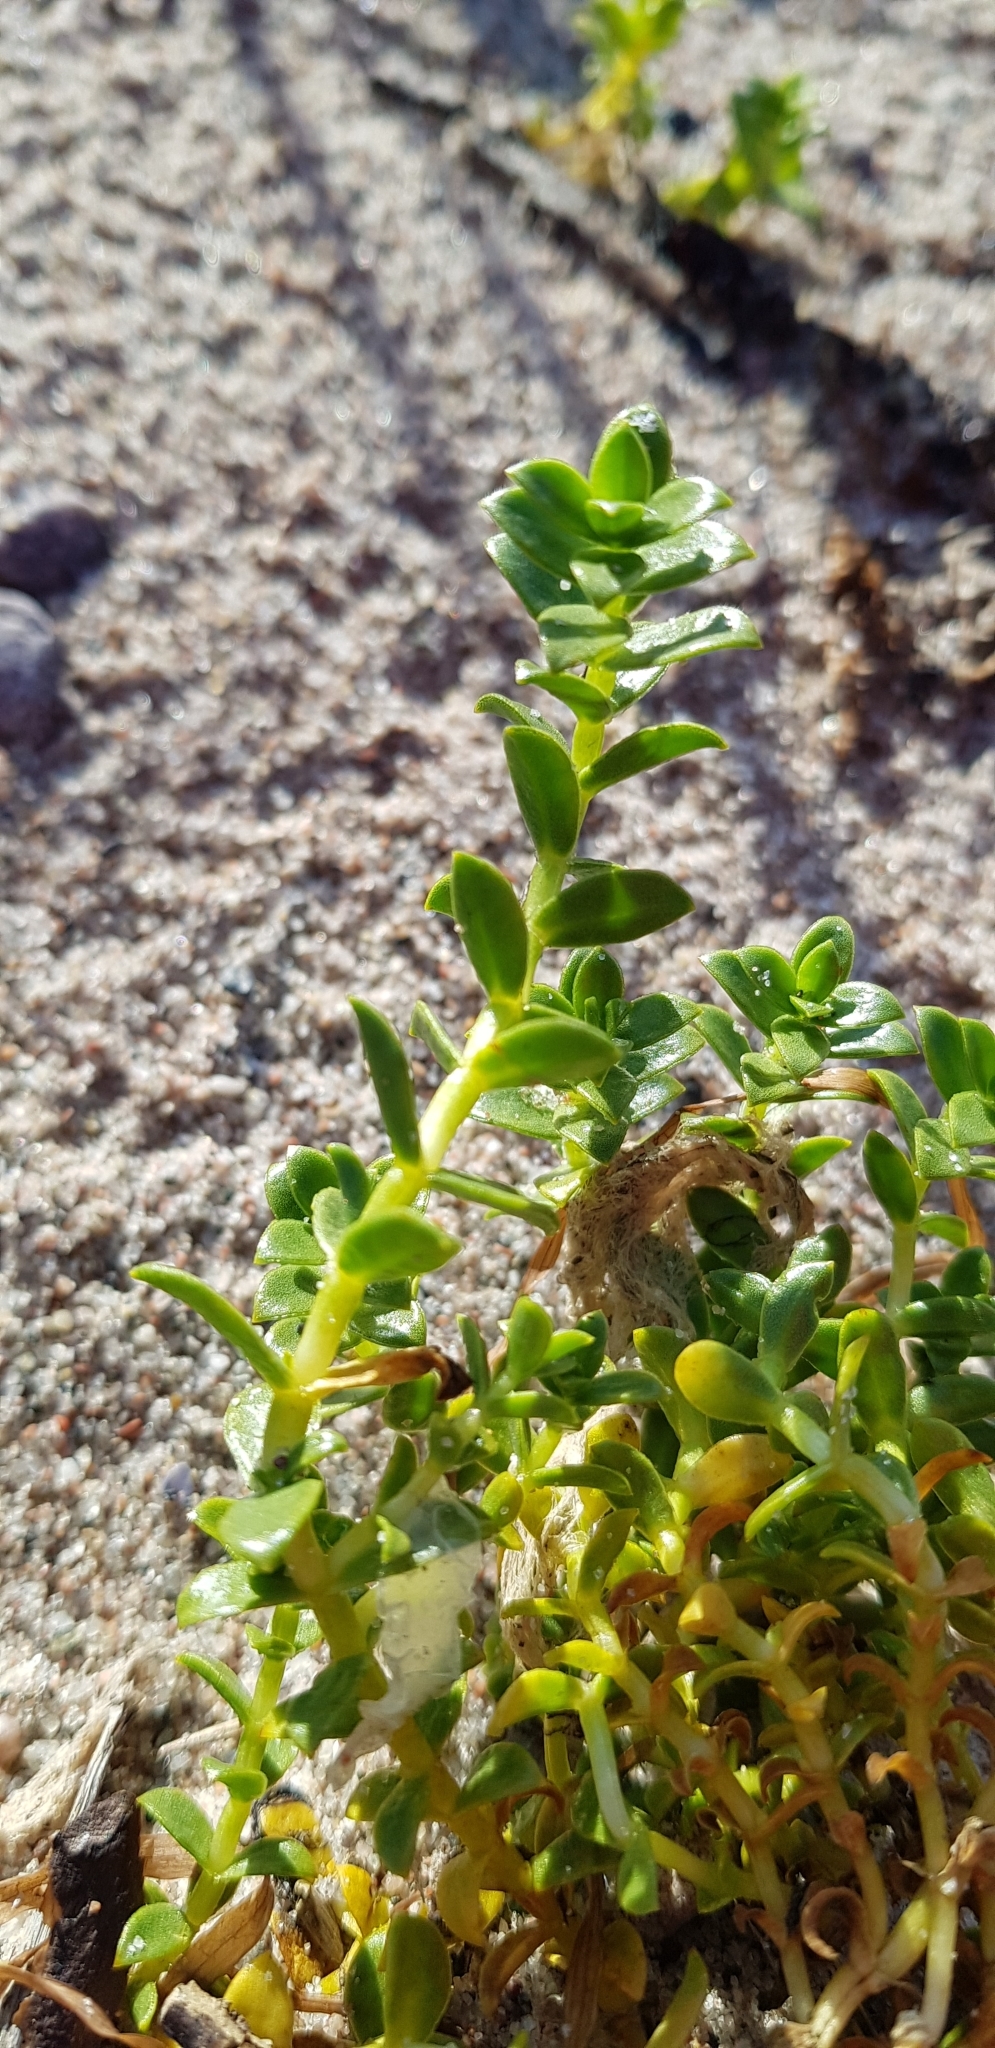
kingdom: Plantae
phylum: Tracheophyta
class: Magnoliopsida
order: Caryophyllales
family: Caryophyllaceae
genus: Honckenya
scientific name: Honckenya peploides
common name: Sea sandwort
